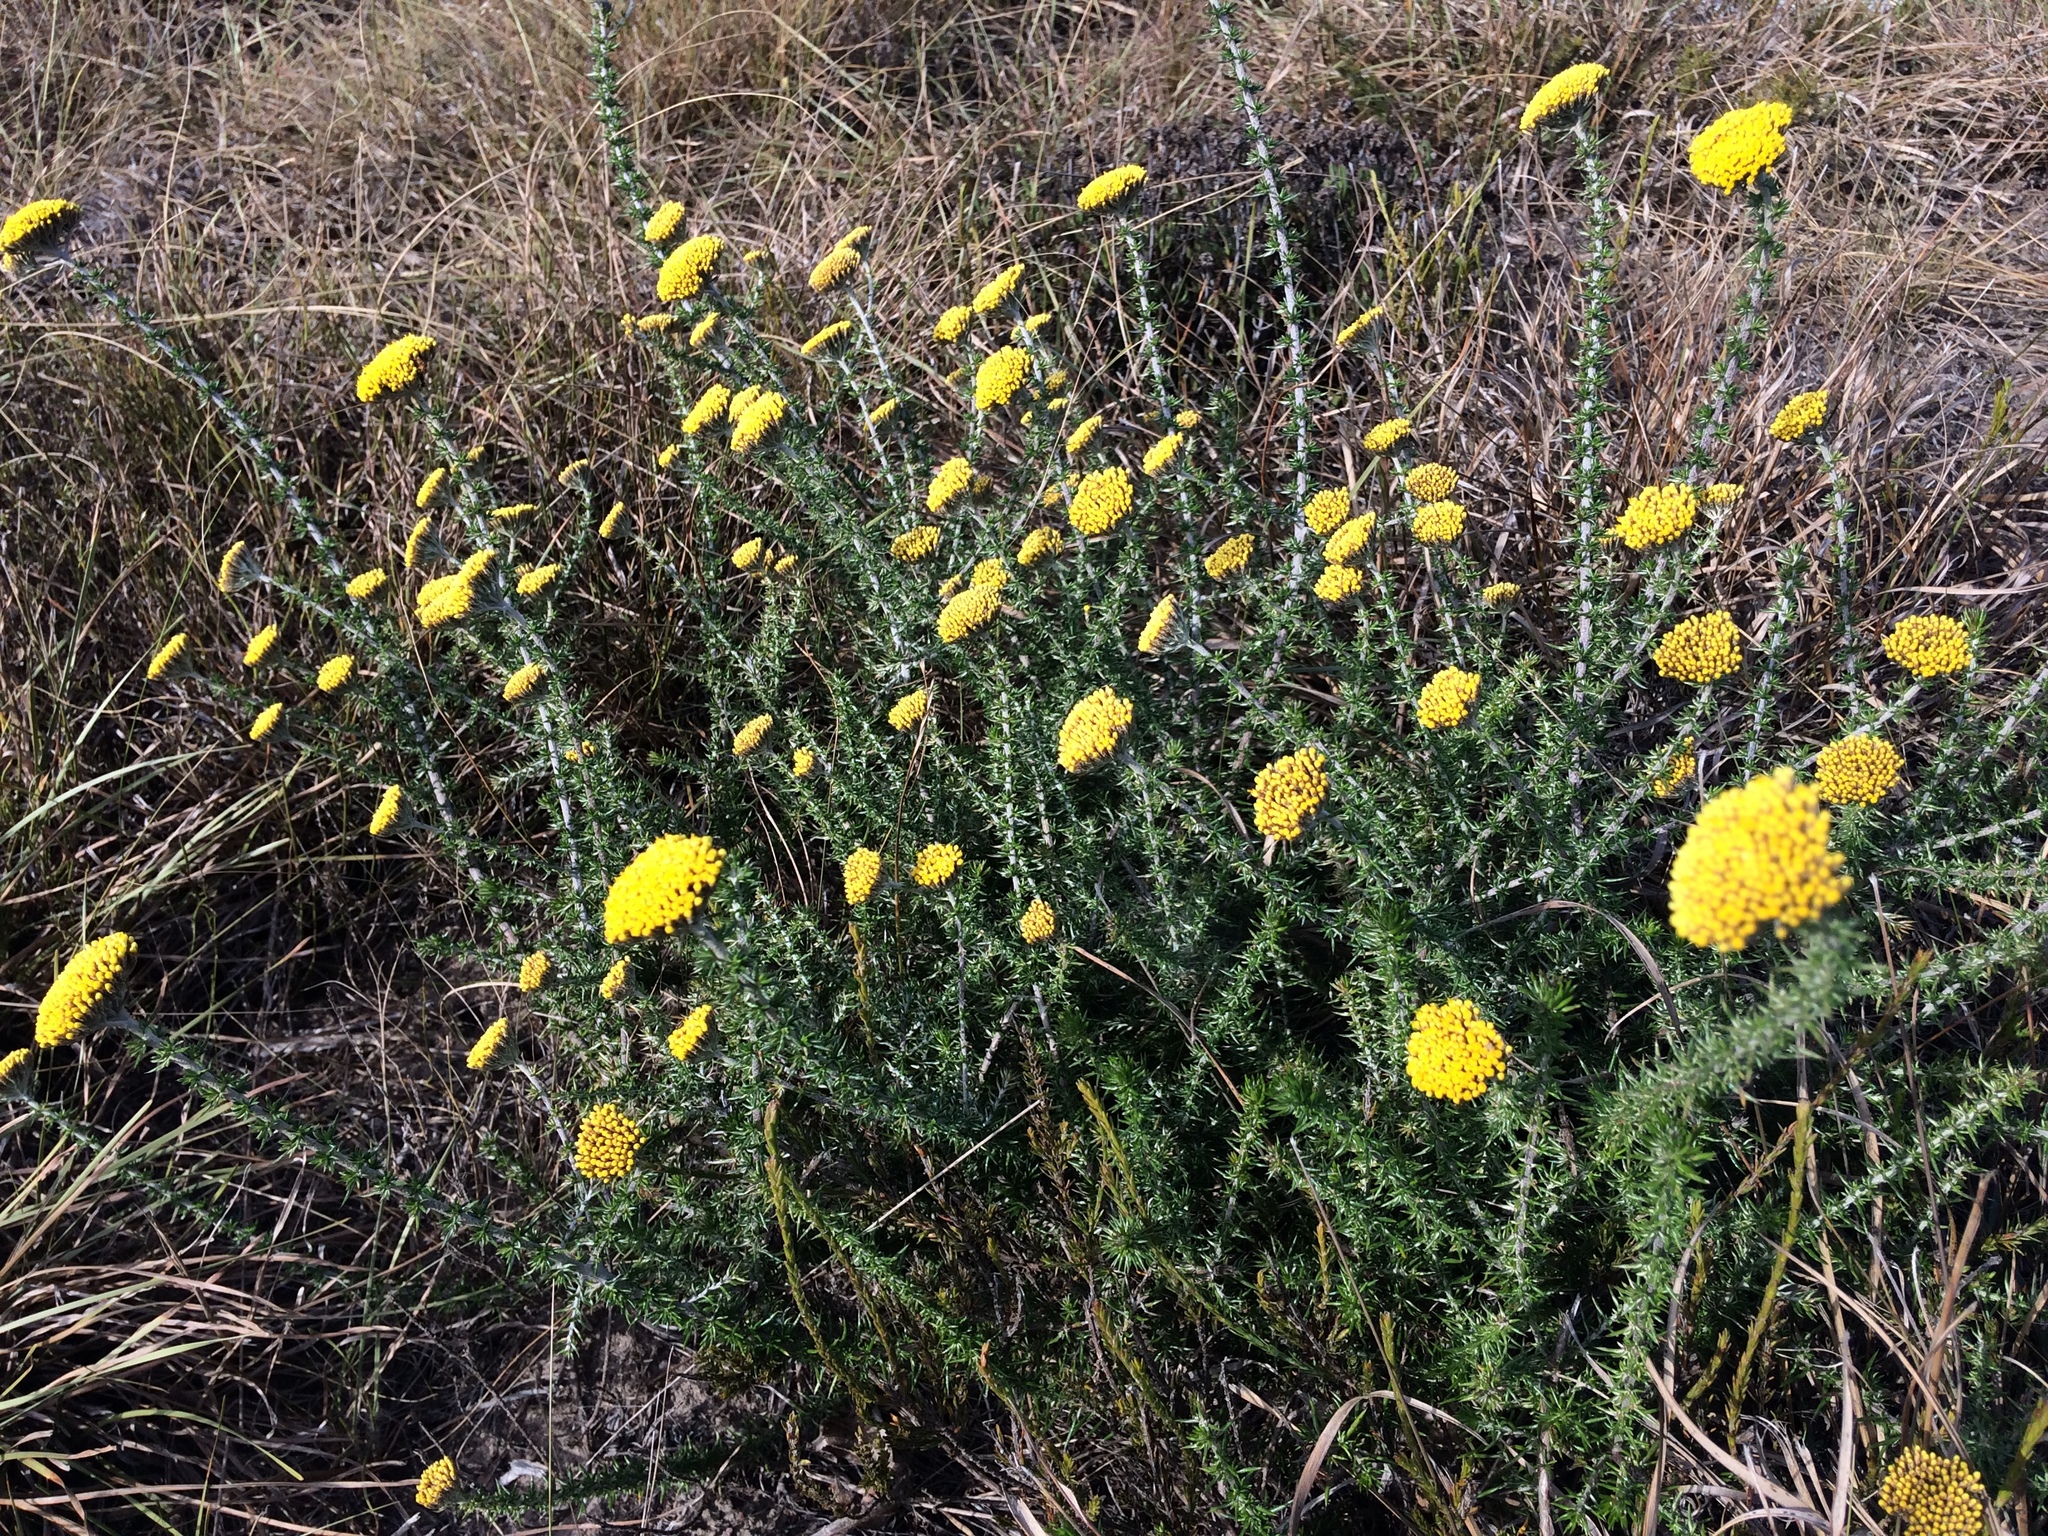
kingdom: Plantae
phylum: Tracheophyta
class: Magnoliopsida
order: Asterales
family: Asteraceae
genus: Metalasia
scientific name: Metalasia aurea
